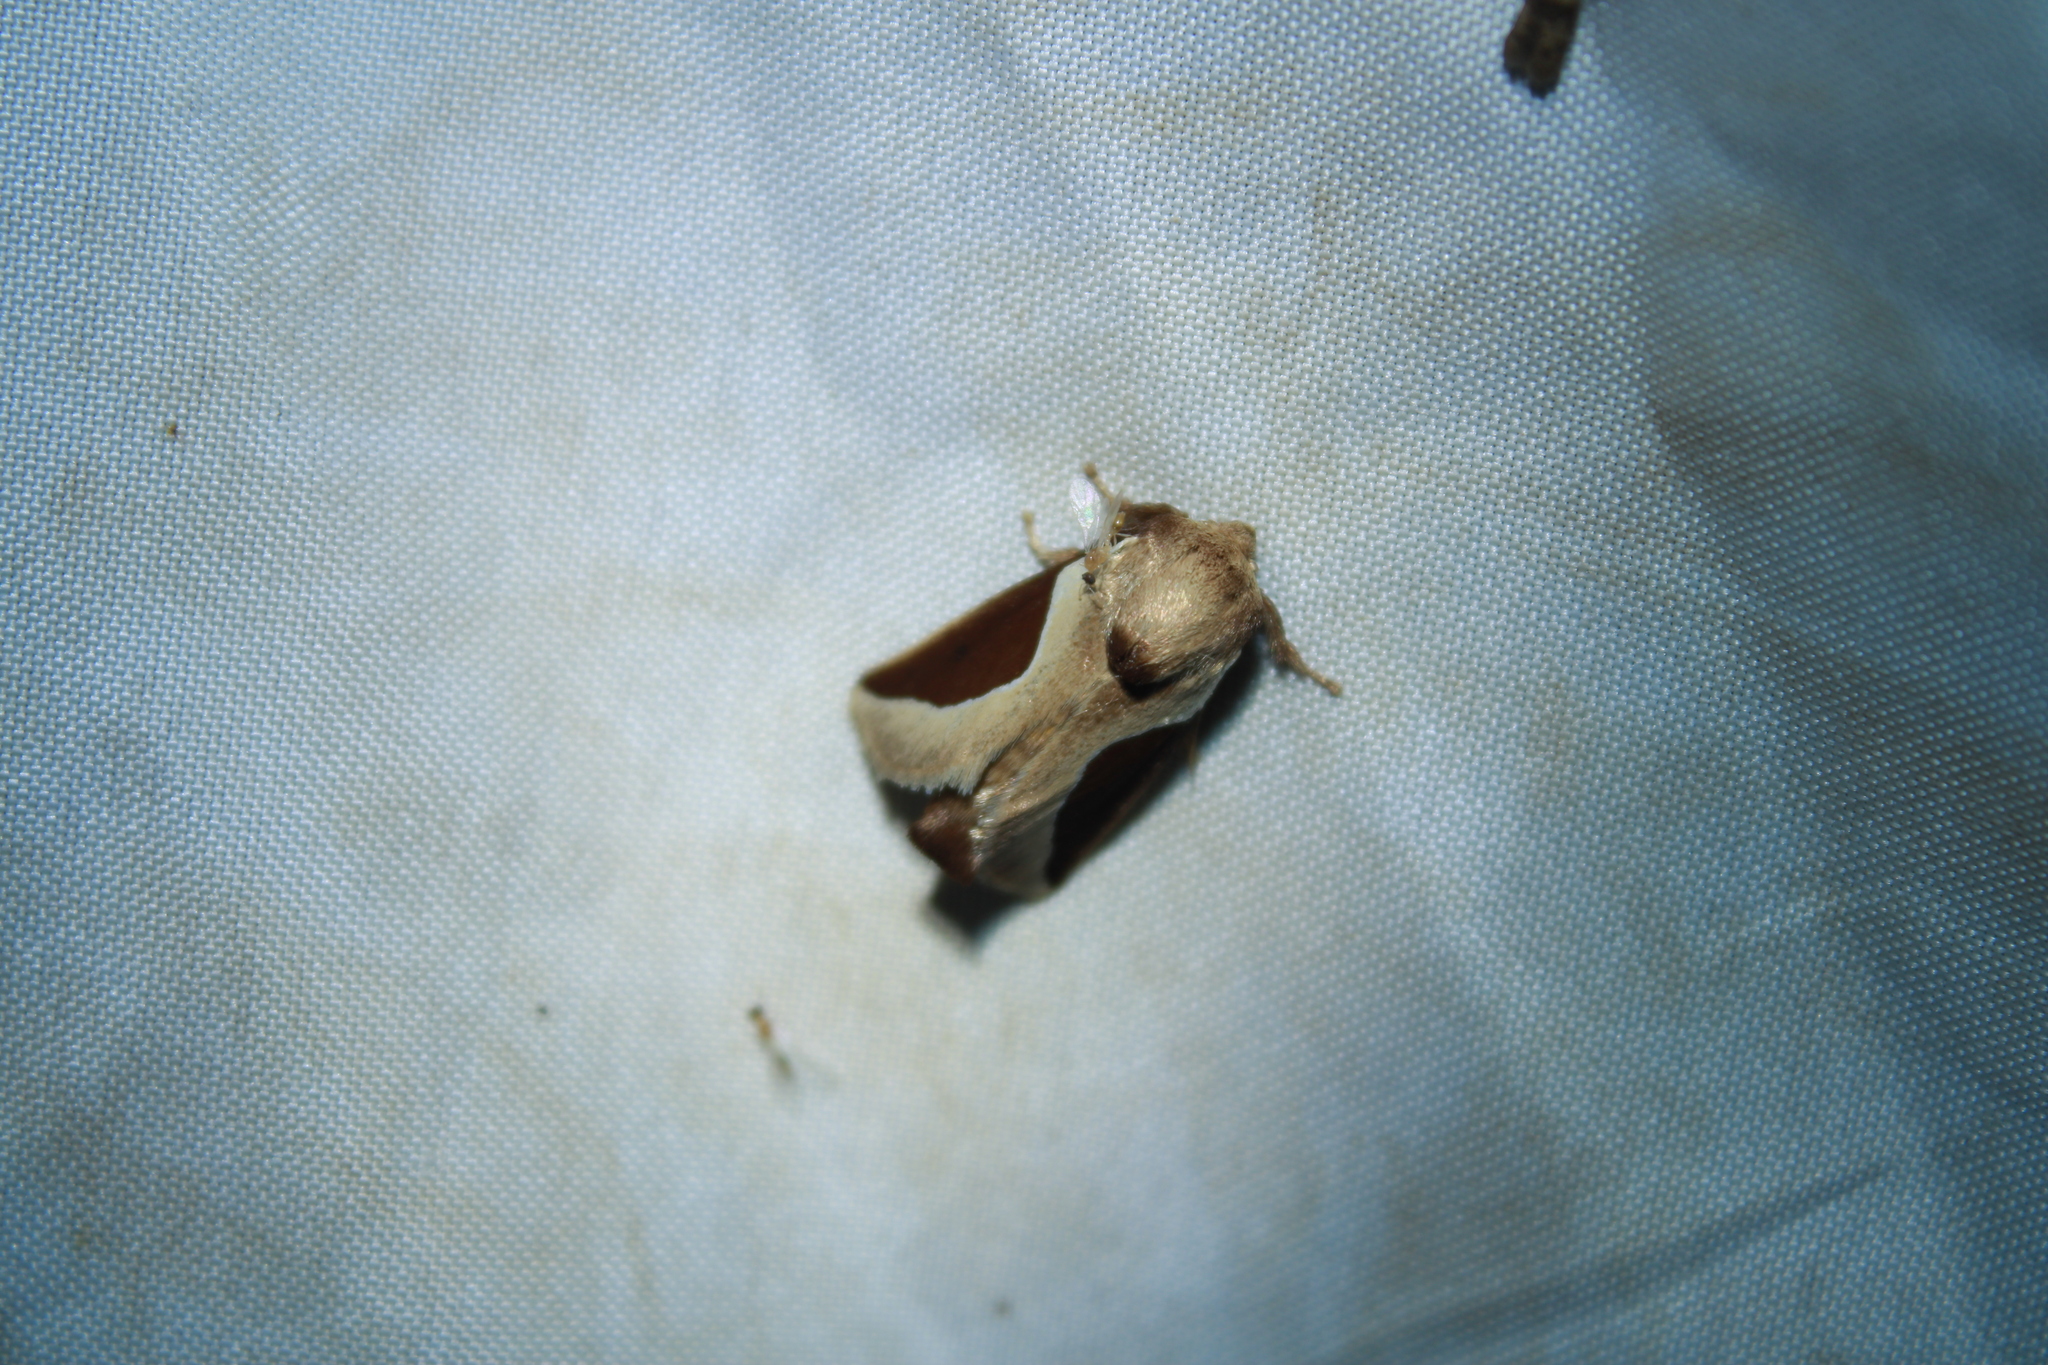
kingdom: Animalia
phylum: Arthropoda
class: Insecta
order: Lepidoptera
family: Limacodidae
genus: Prolimacodes
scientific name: Prolimacodes badia
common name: Skiff moth
